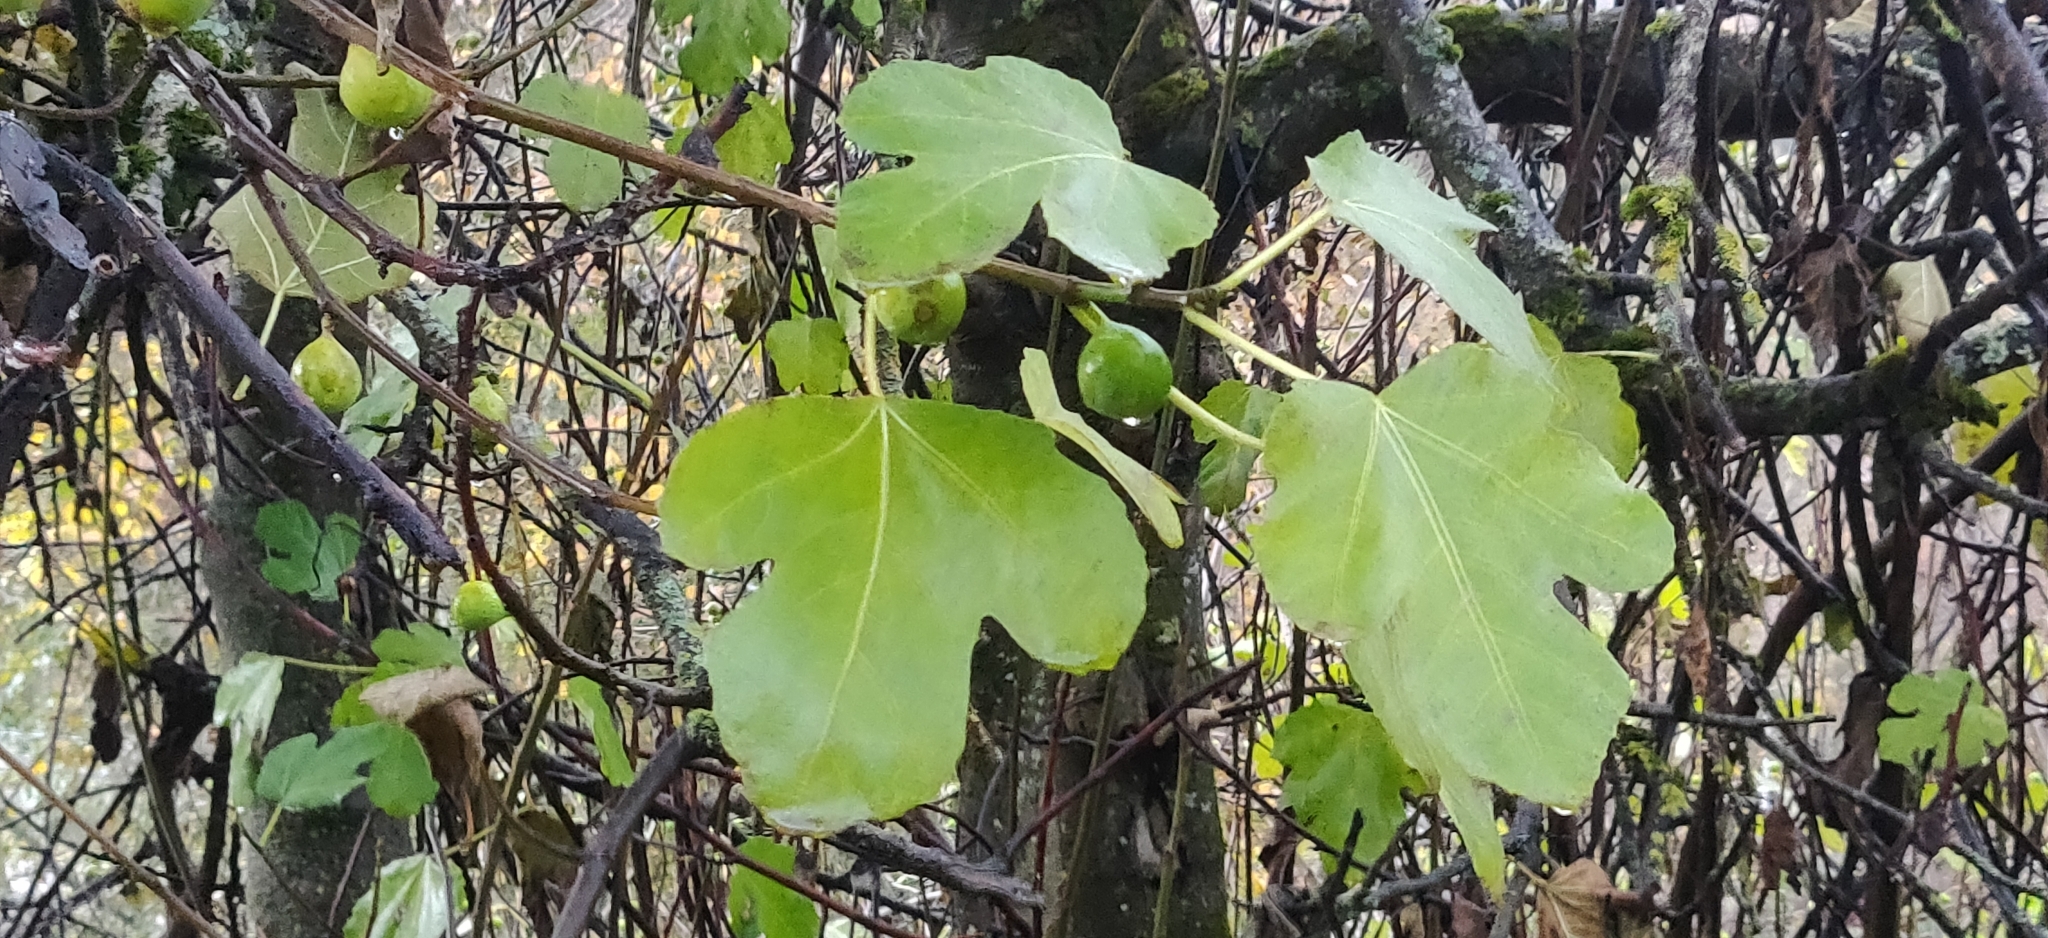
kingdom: Plantae
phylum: Tracheophyta
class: Magnoliopsida
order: Rosales
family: Moraceae
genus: Ficus
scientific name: Ficus carica
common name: Fig
